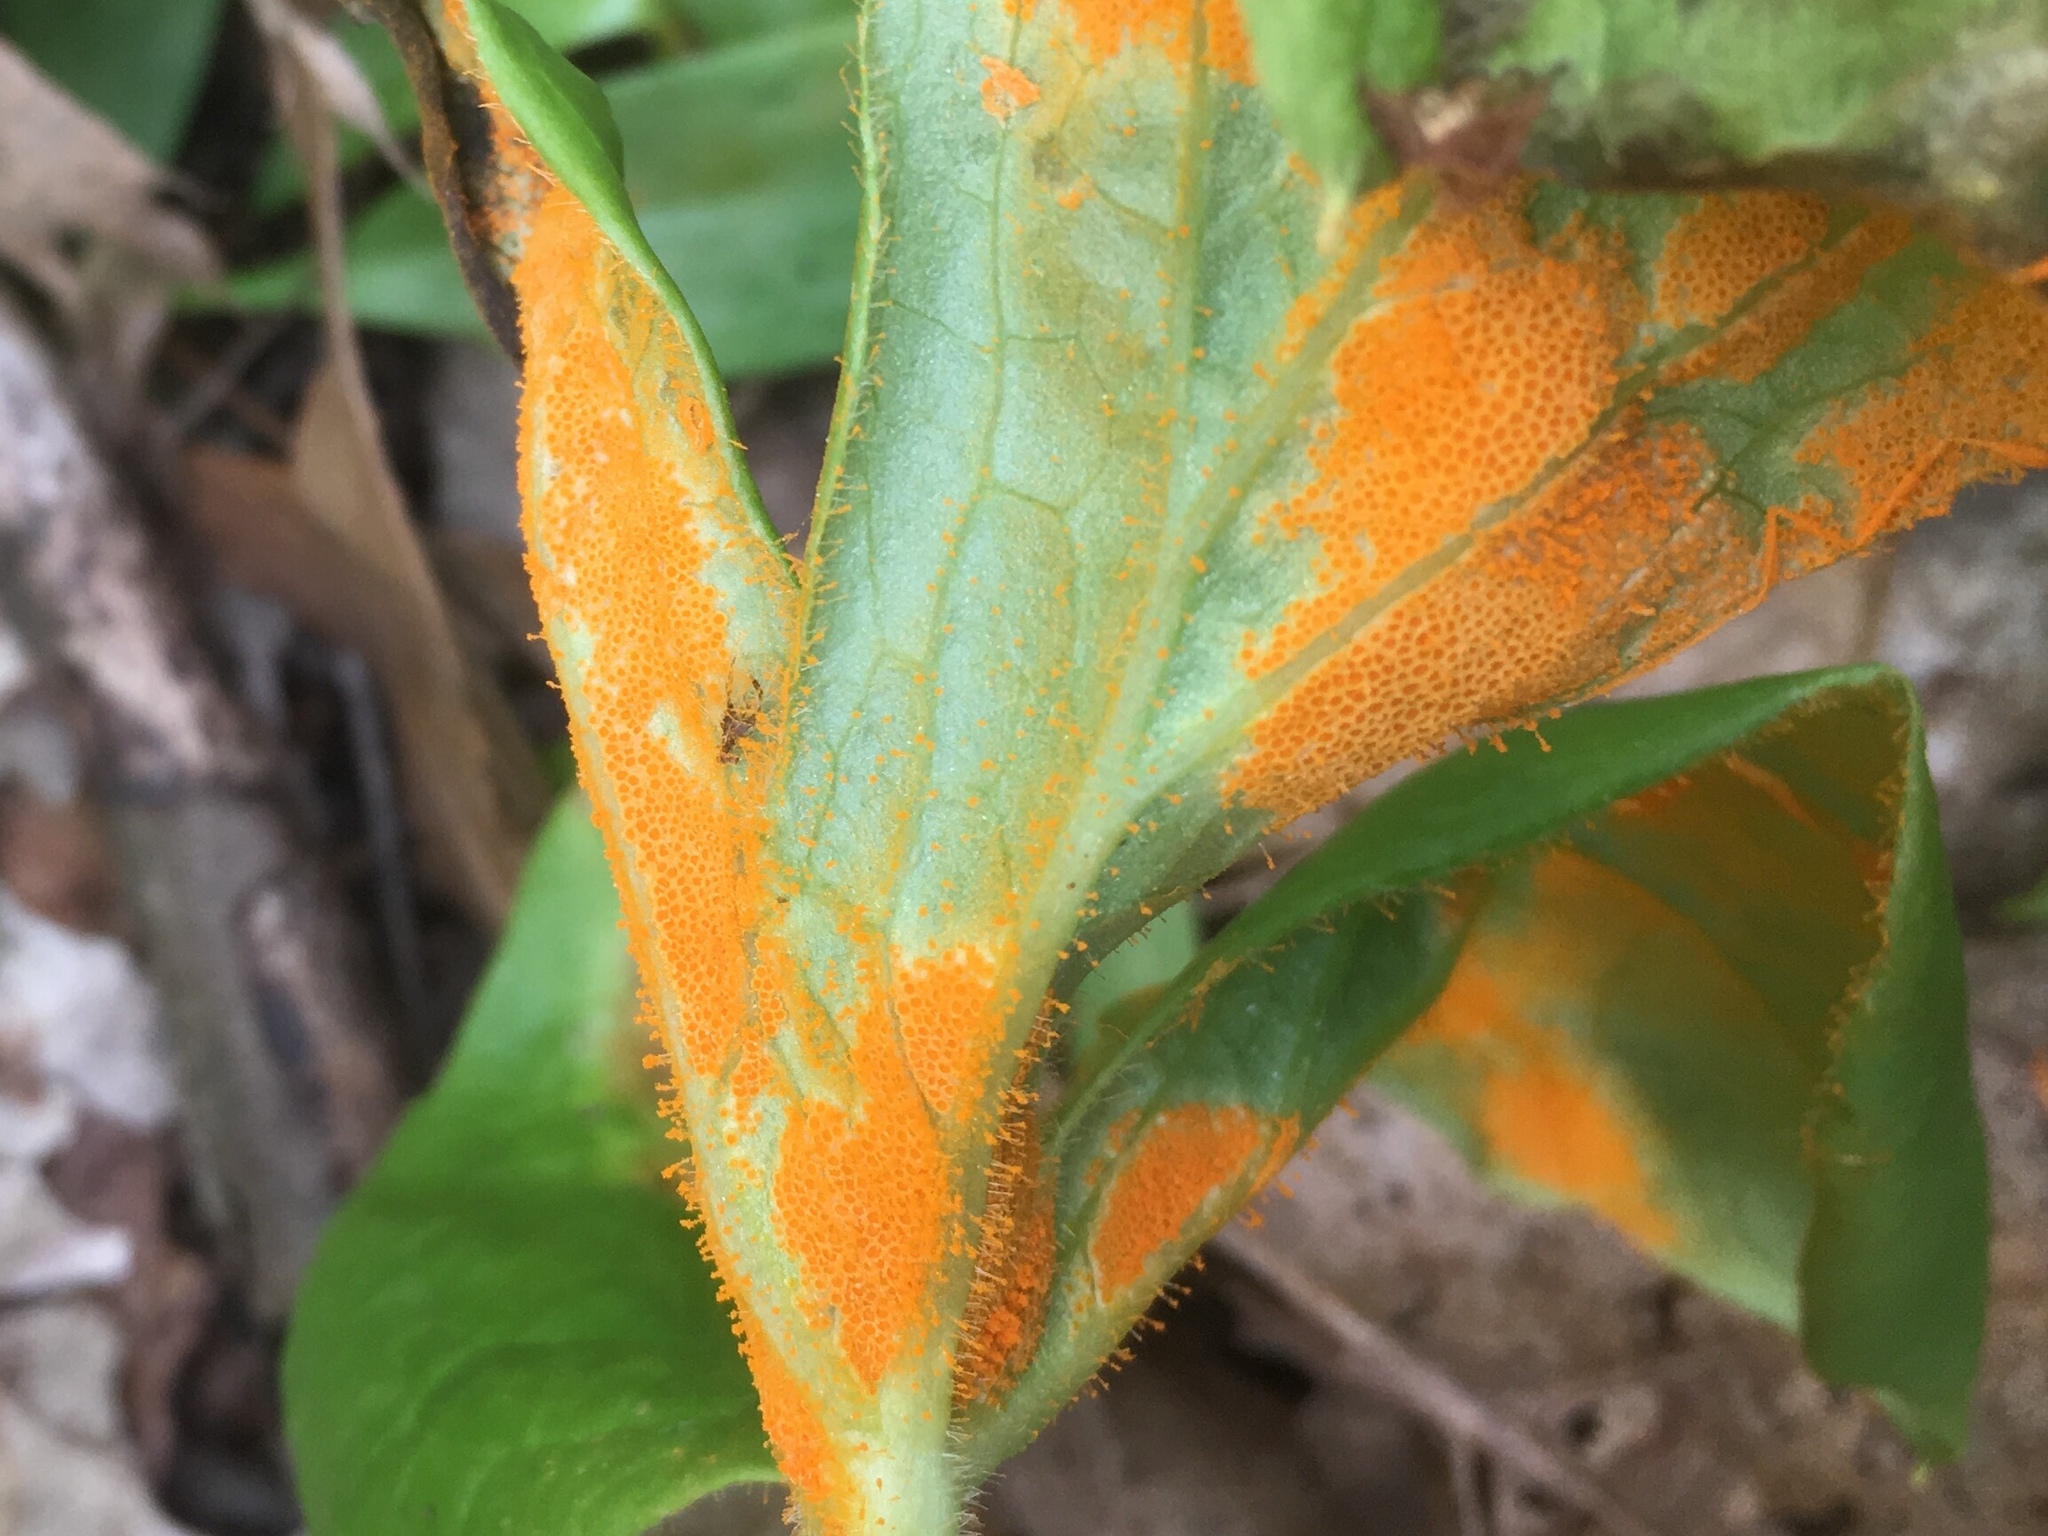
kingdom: Fungi
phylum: Basidiomycota
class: Pucciniomycetes
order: Pucciniales
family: Pucciniaceae
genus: Puccinia
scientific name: Puccinia podophylli
